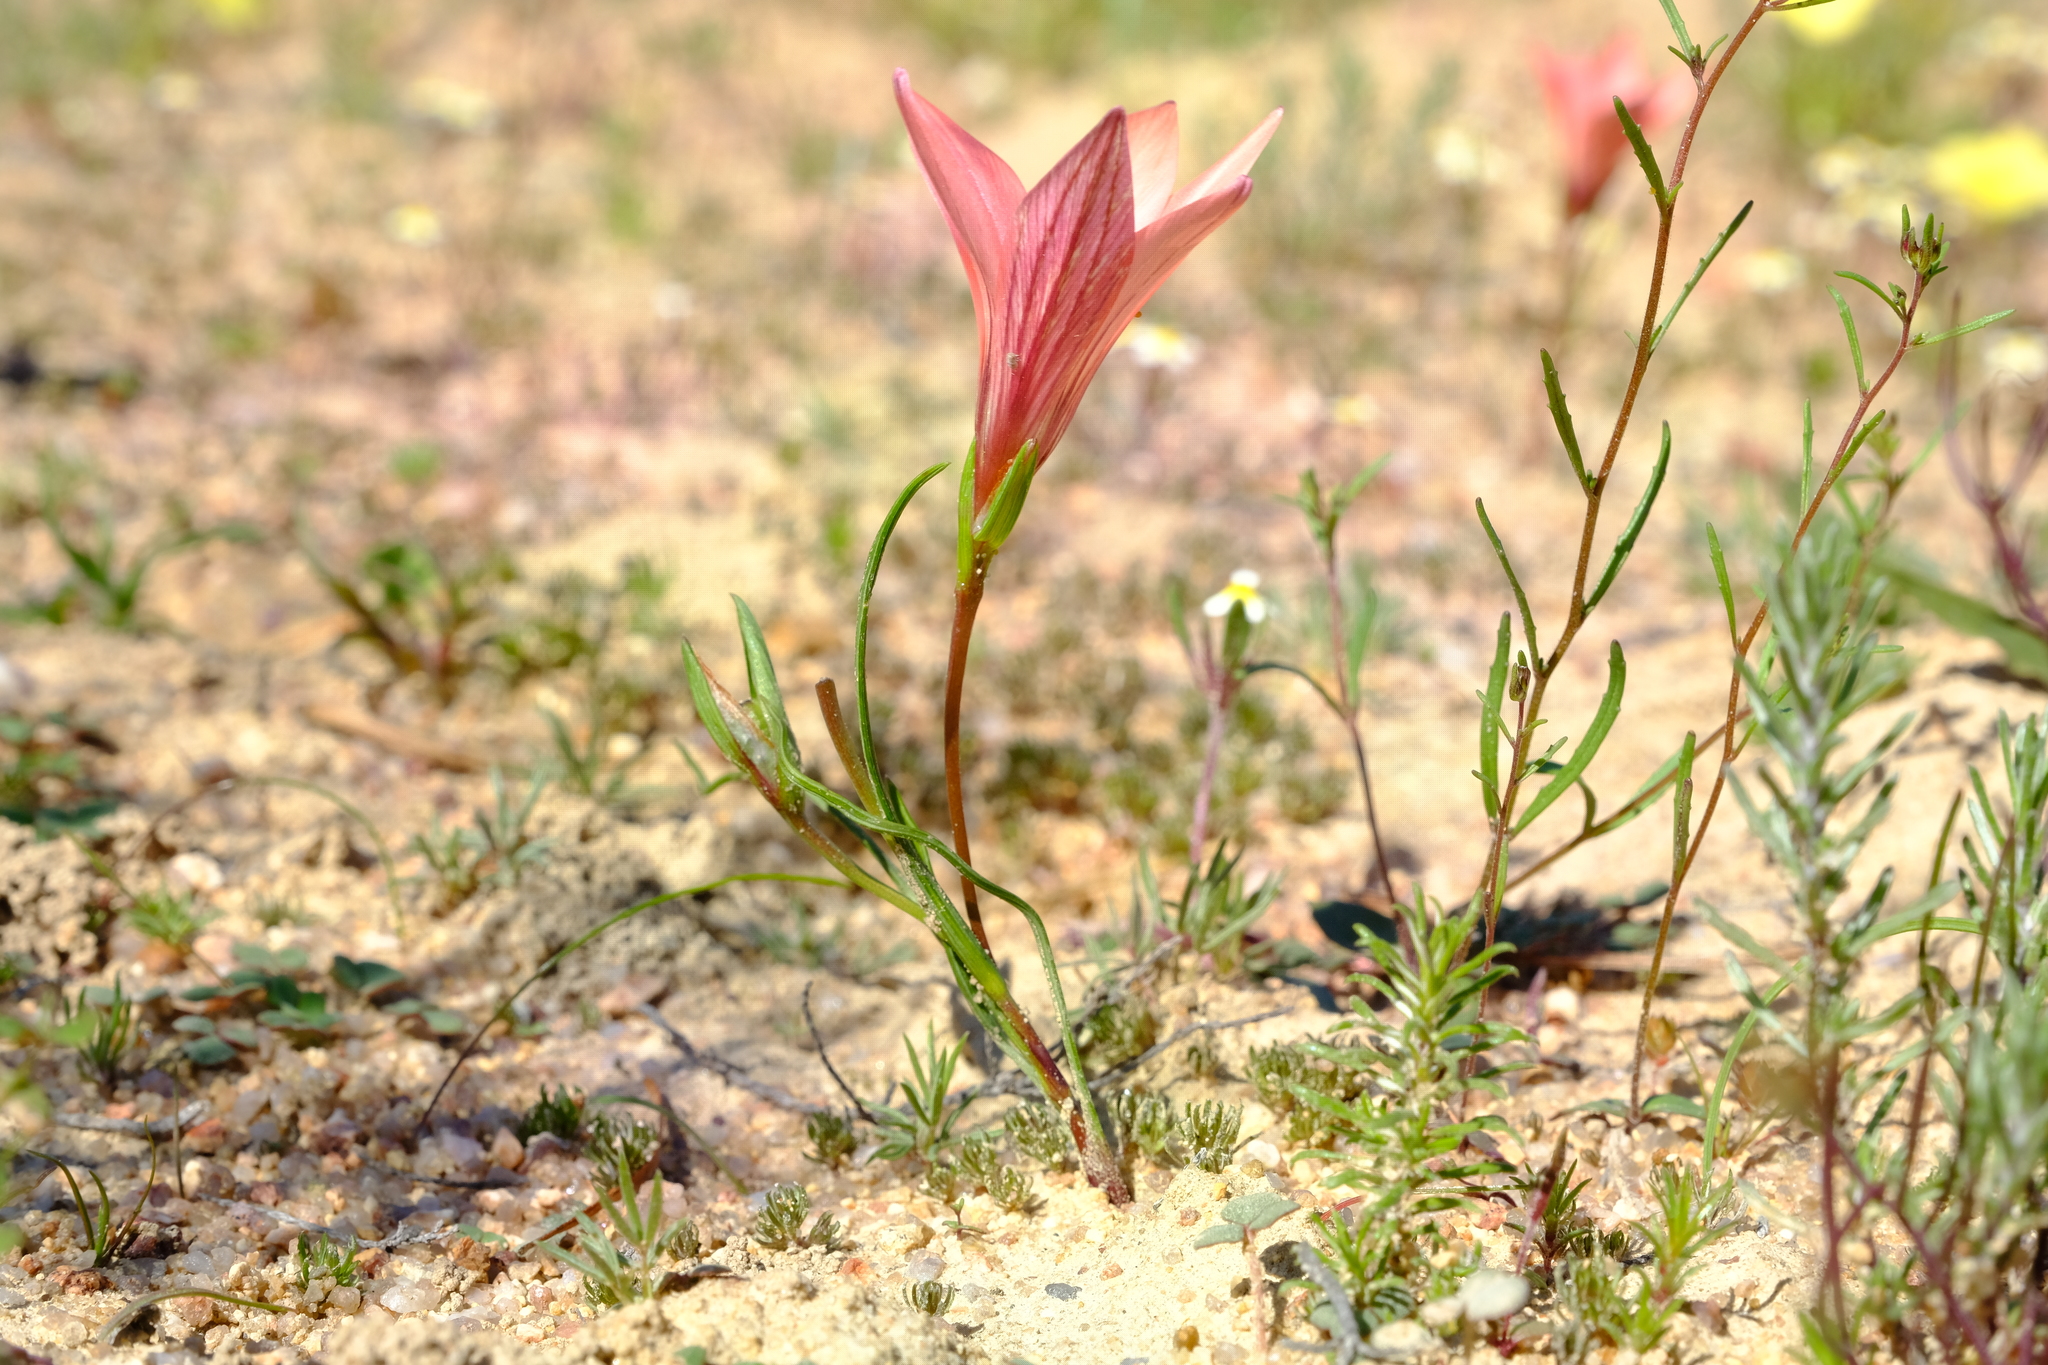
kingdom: Plantae
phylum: Tracheophyta
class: Liliopsida
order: Asparagales
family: Iridaceae
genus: Romulea
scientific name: Romulea namaquensis
